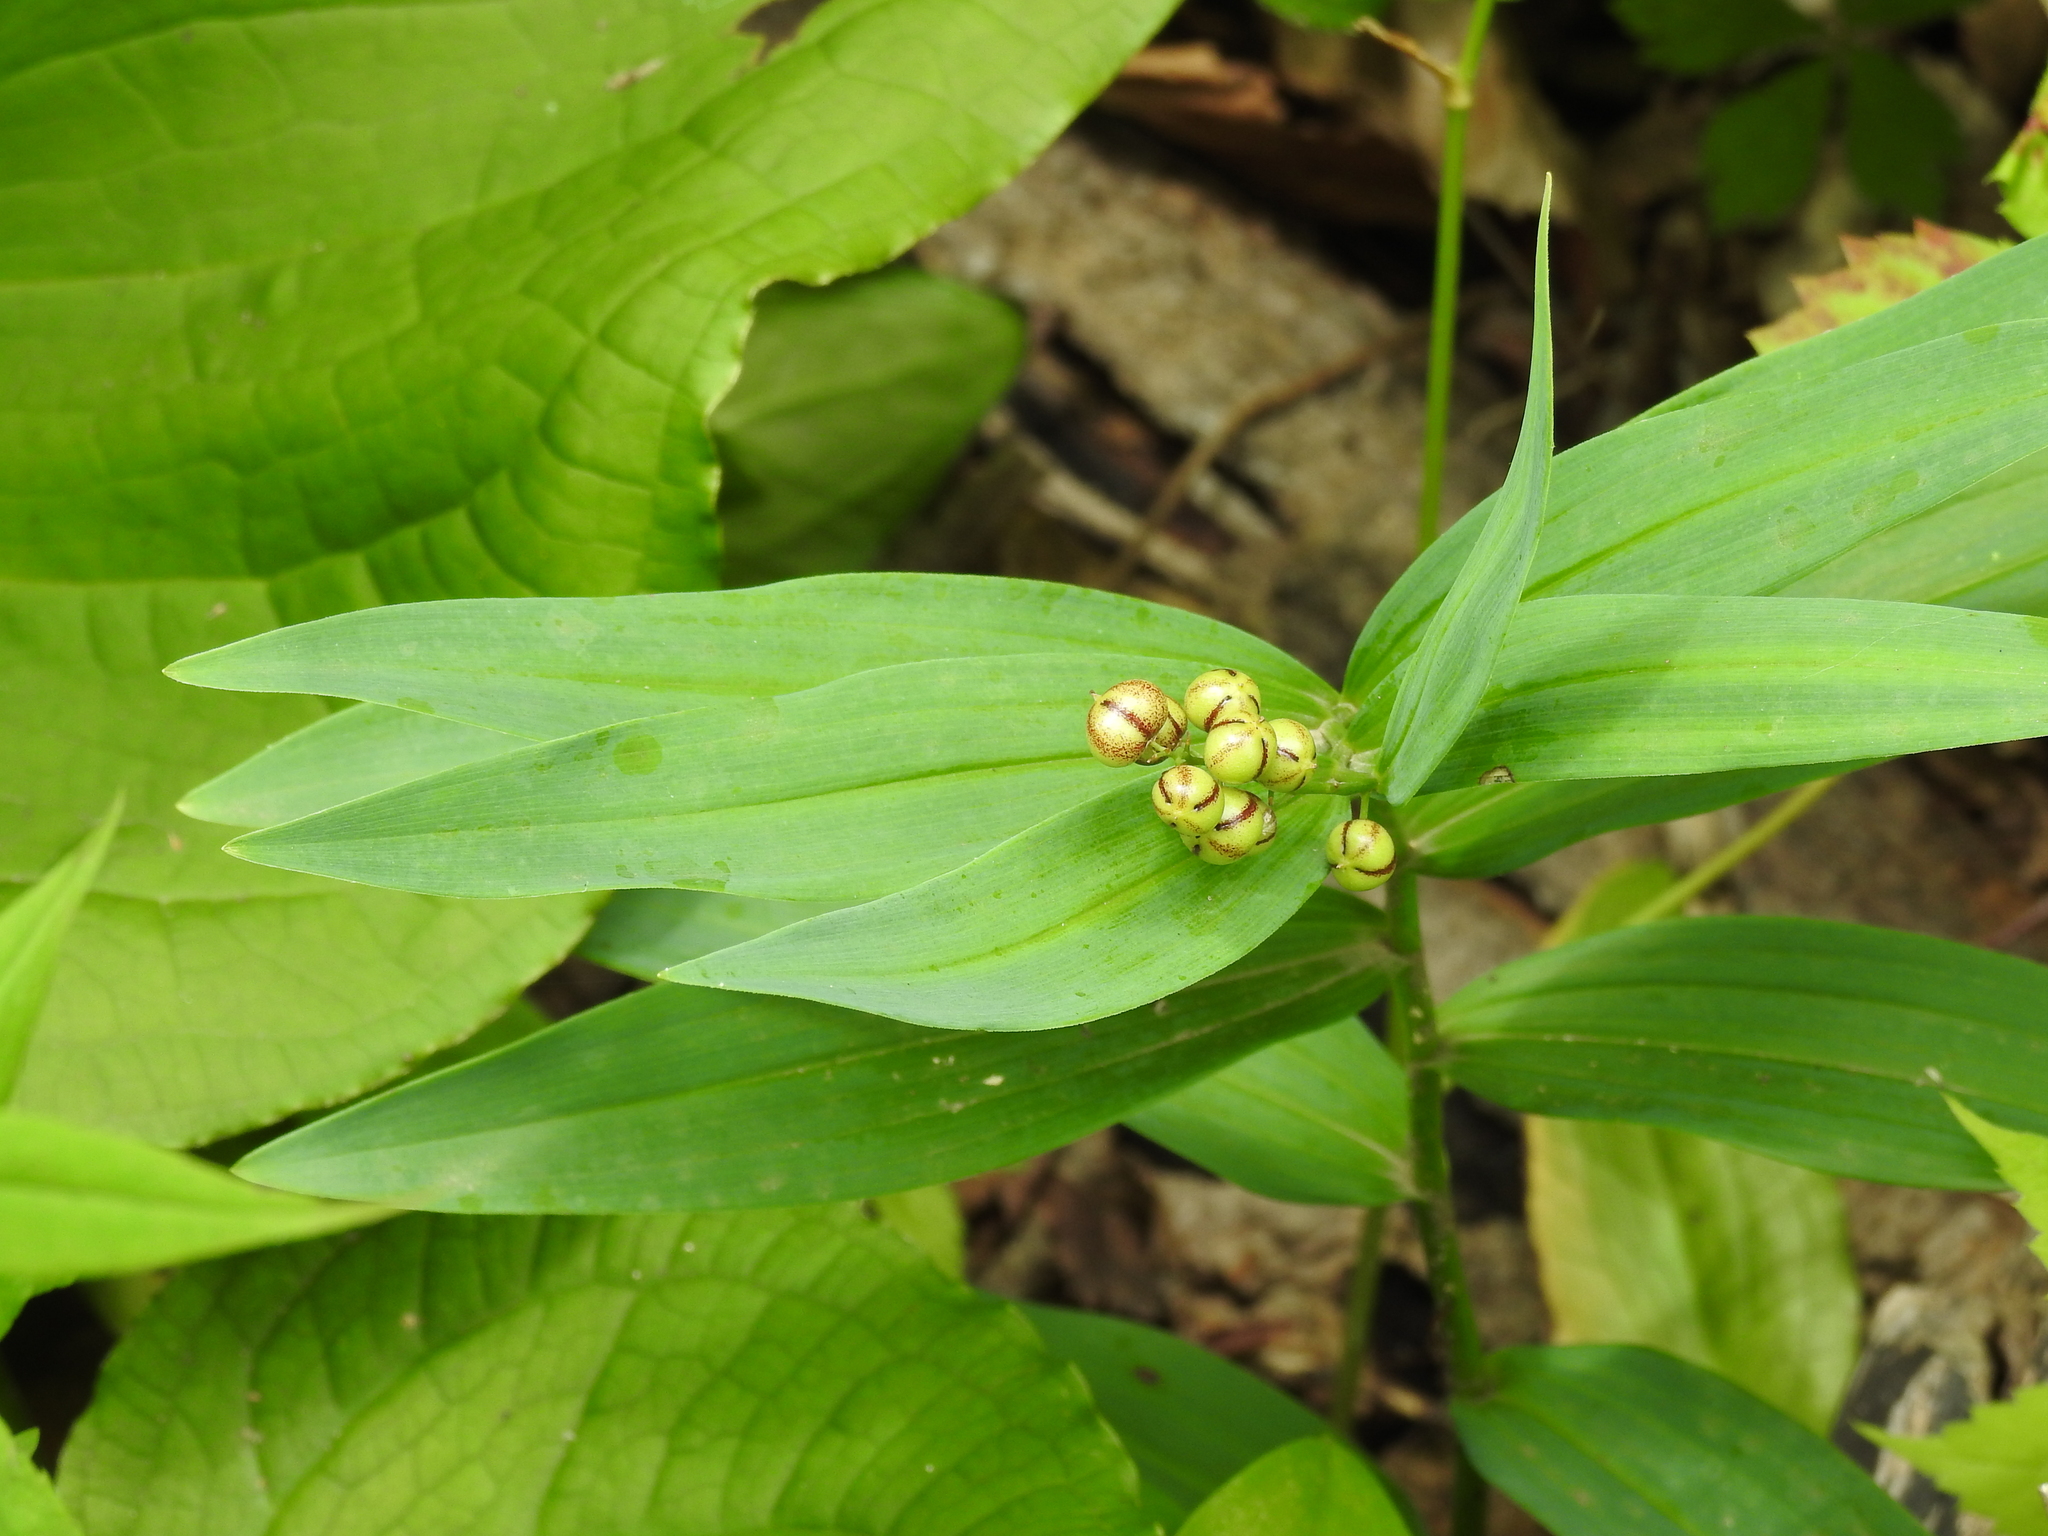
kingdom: Plantae
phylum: Tracheophyta
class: Liliopsida
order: Asparagales
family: Asparagaceae
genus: Maianthemum
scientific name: Maianthemum stellatum
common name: Little false solomon's seal
